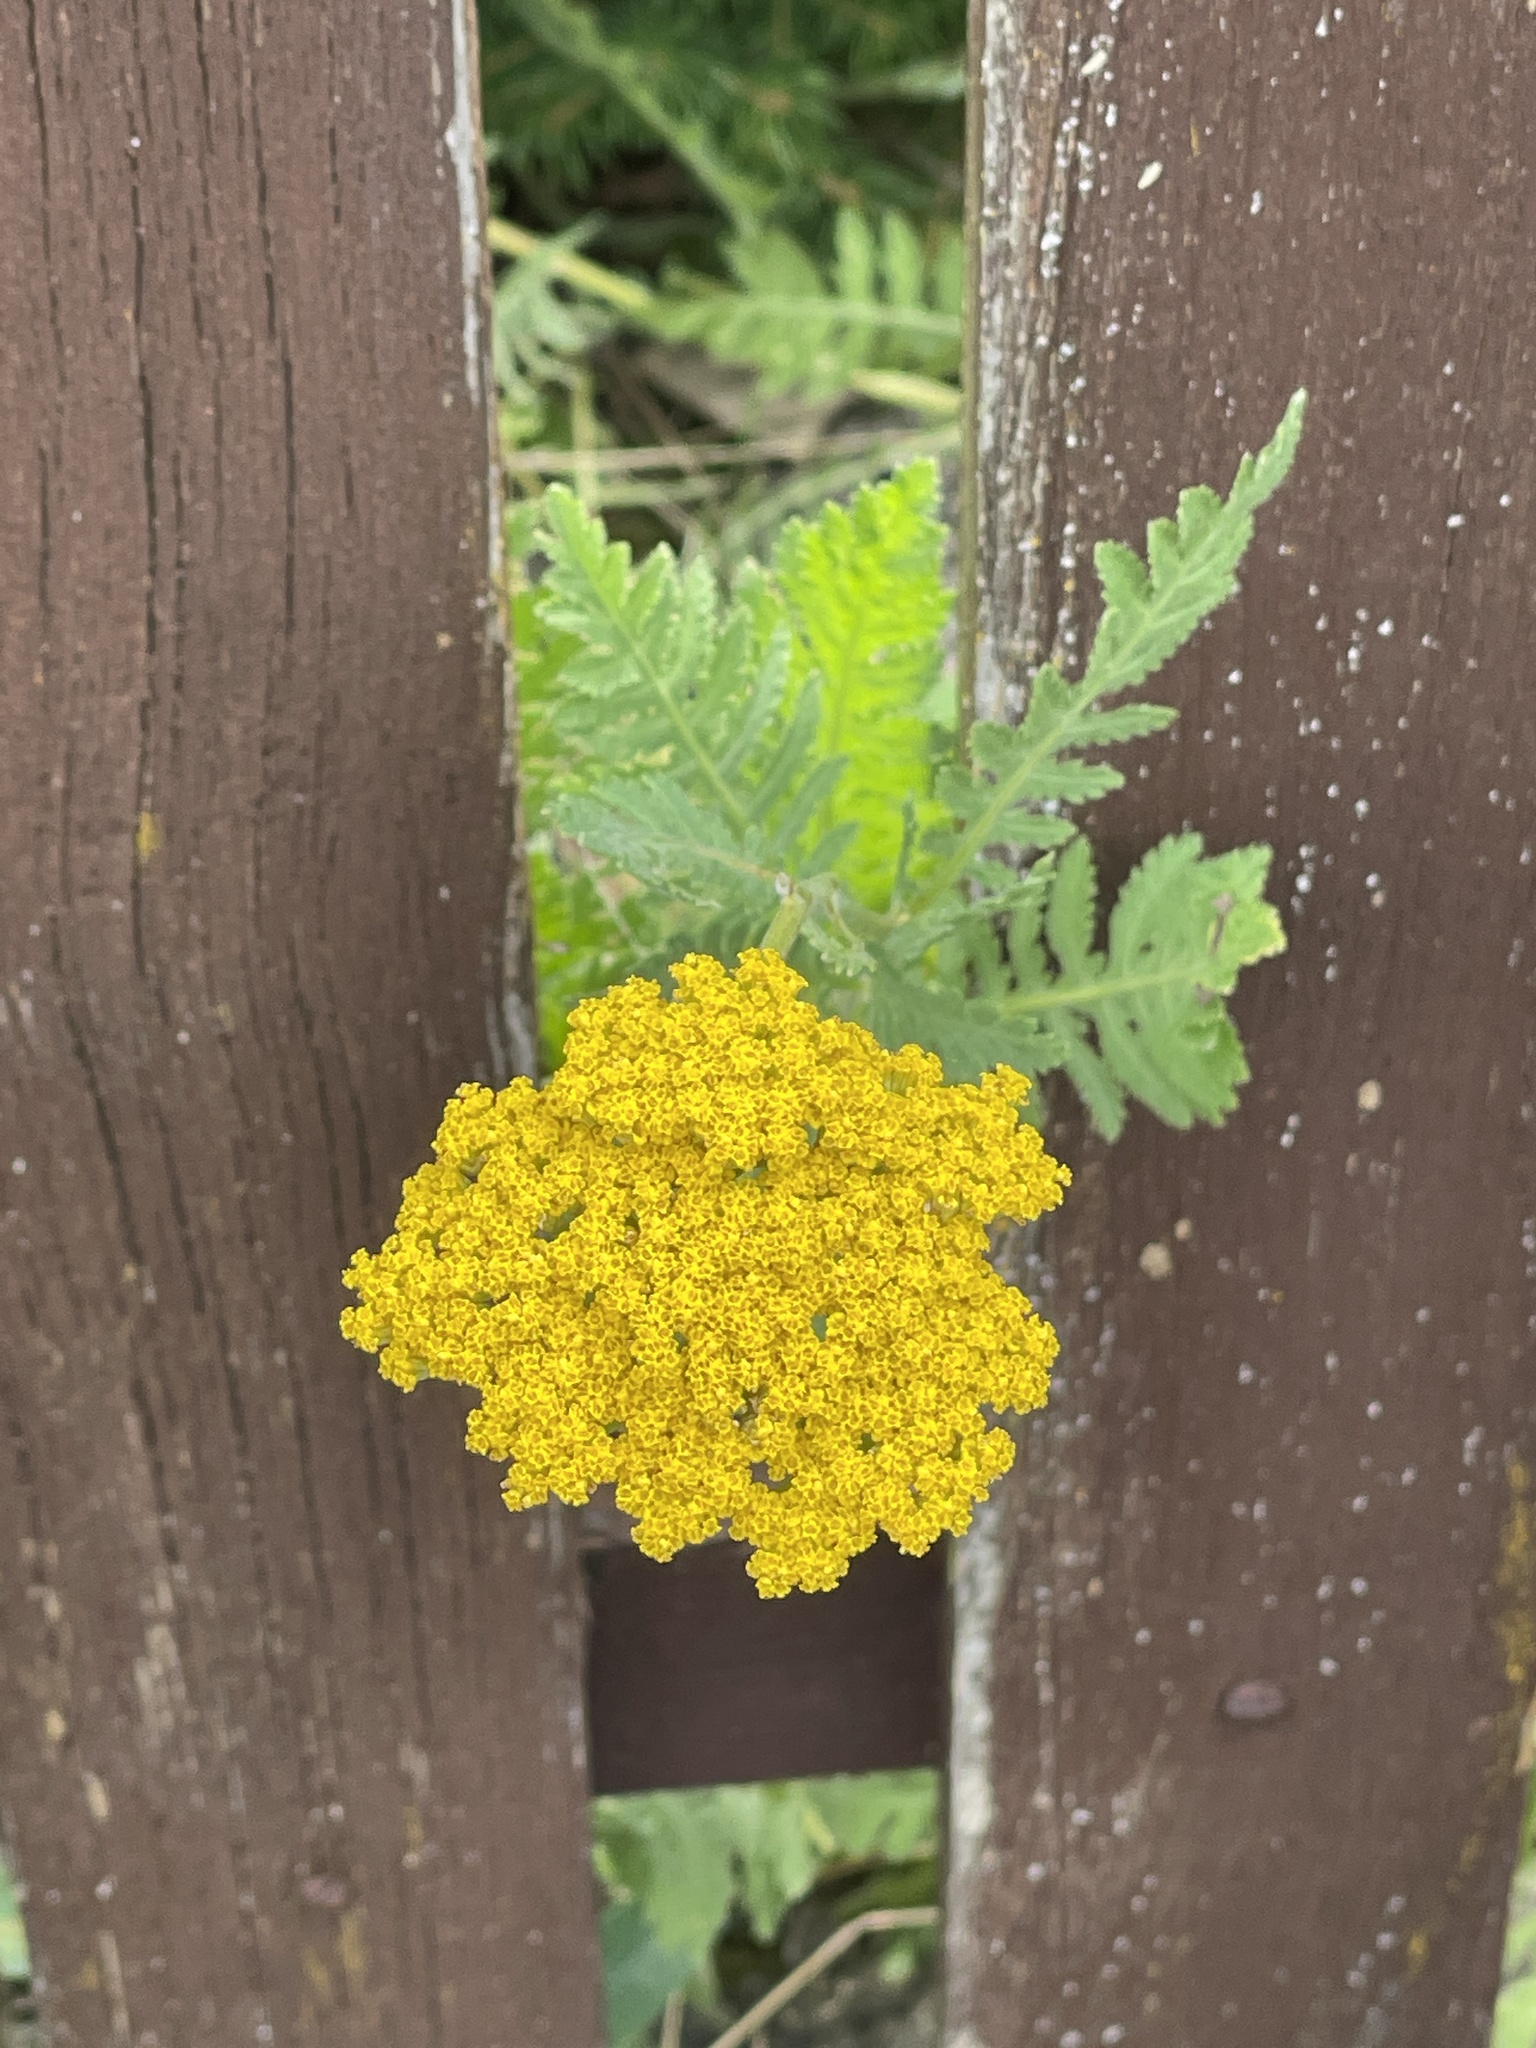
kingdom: Plantae
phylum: Tracheophyta
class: Magnoliopsida
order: Asterales
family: Asteraceae
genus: Achillea
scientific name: Achillea filipendulina
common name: Fernleaf yarrow
